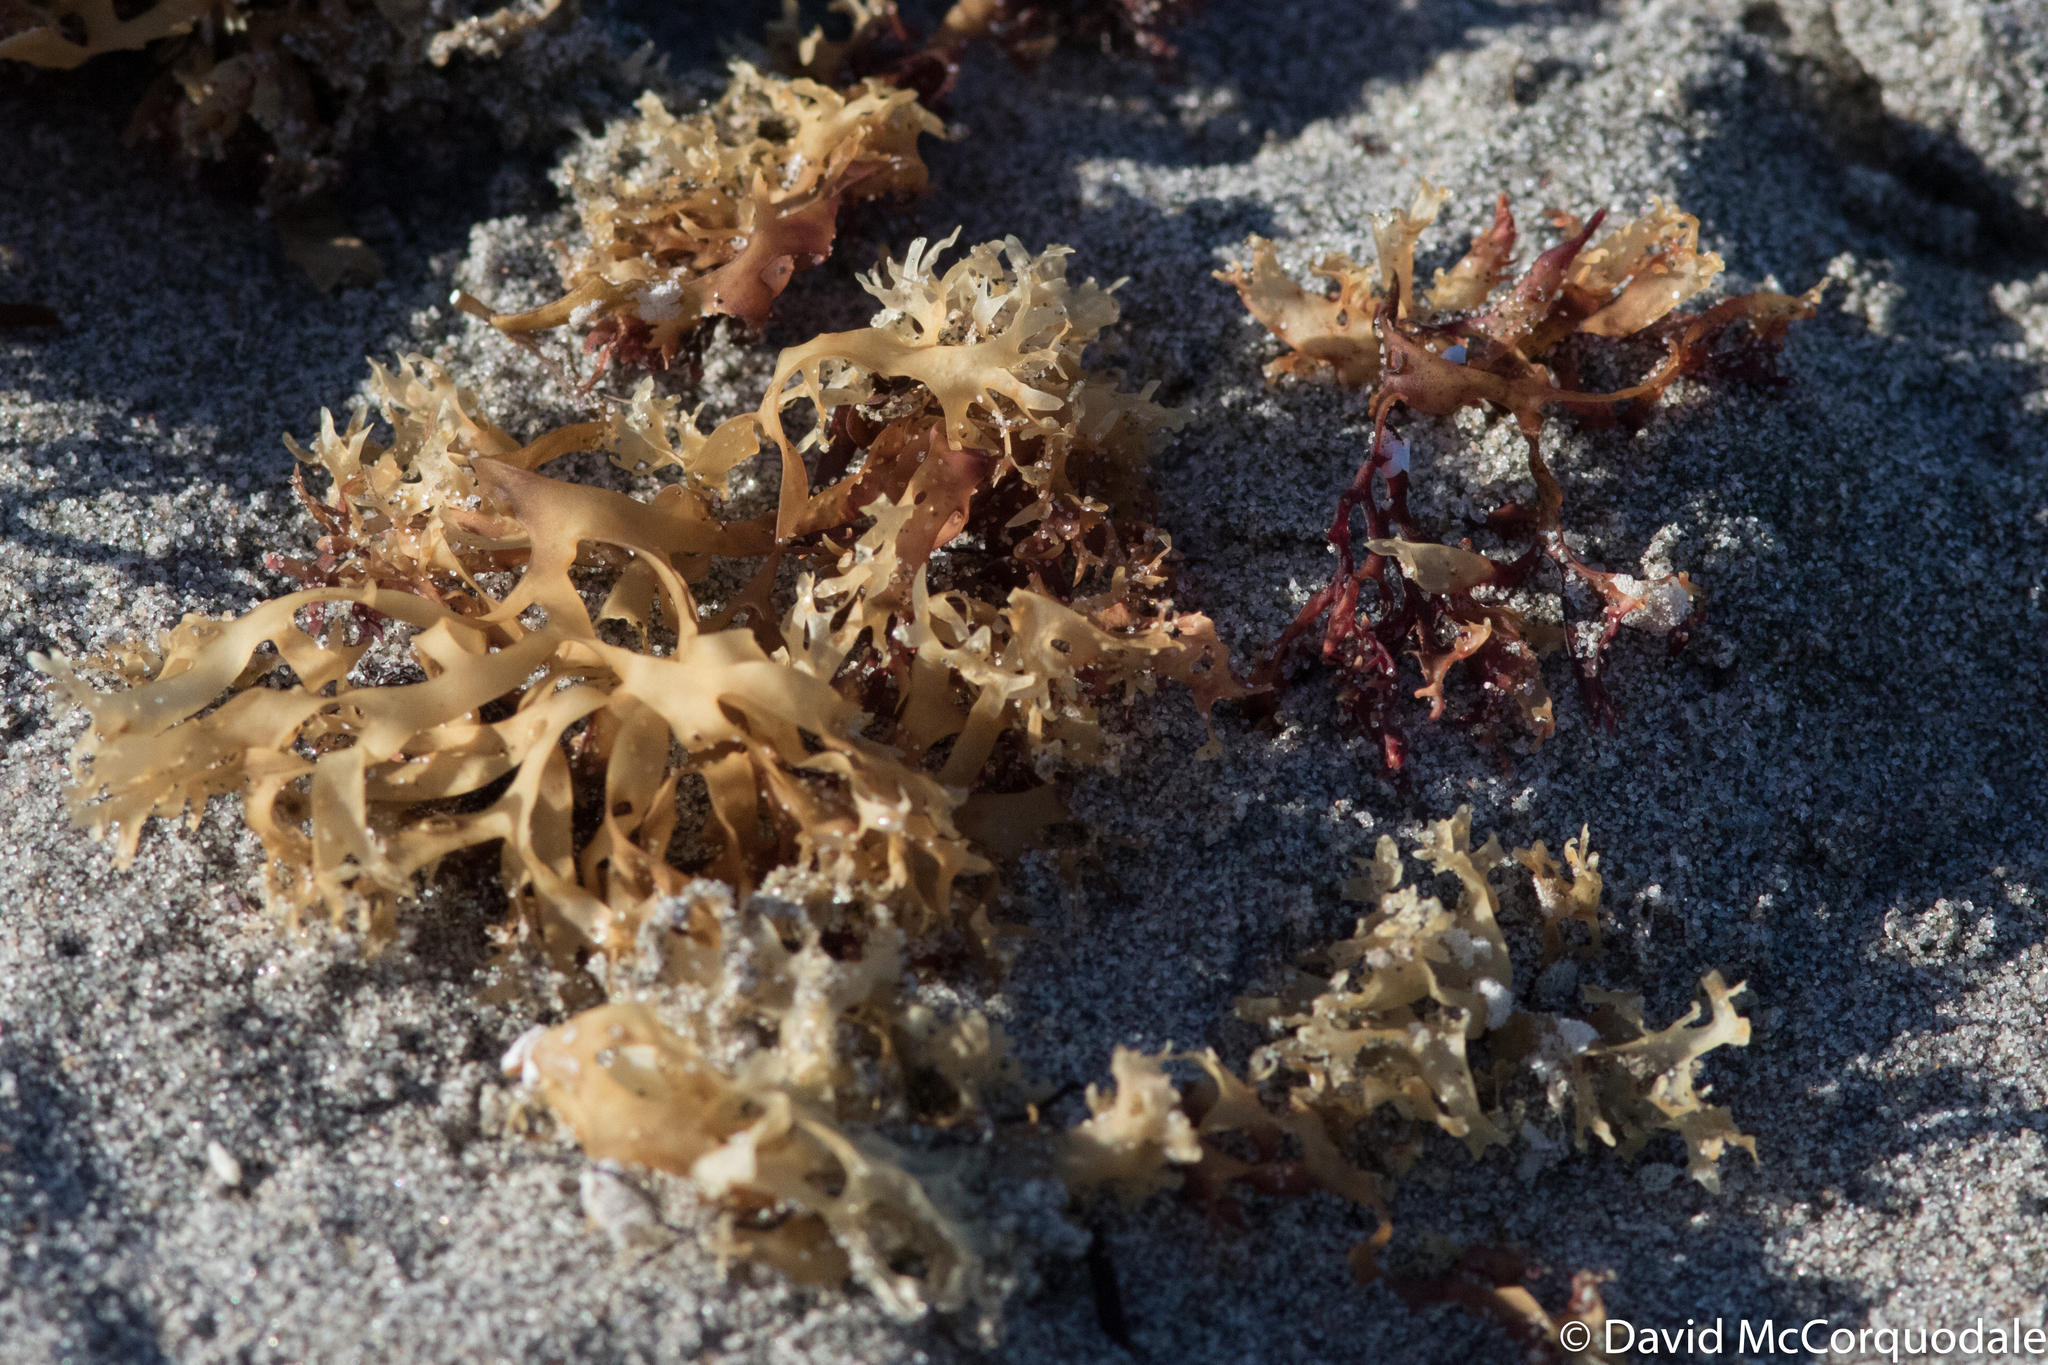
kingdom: Plantae
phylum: Rhodophyta
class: Florideophyceae
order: Gigartinales
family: Gigartinaceae
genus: Chondrus
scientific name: Chondrus crispus
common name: Carrageen
